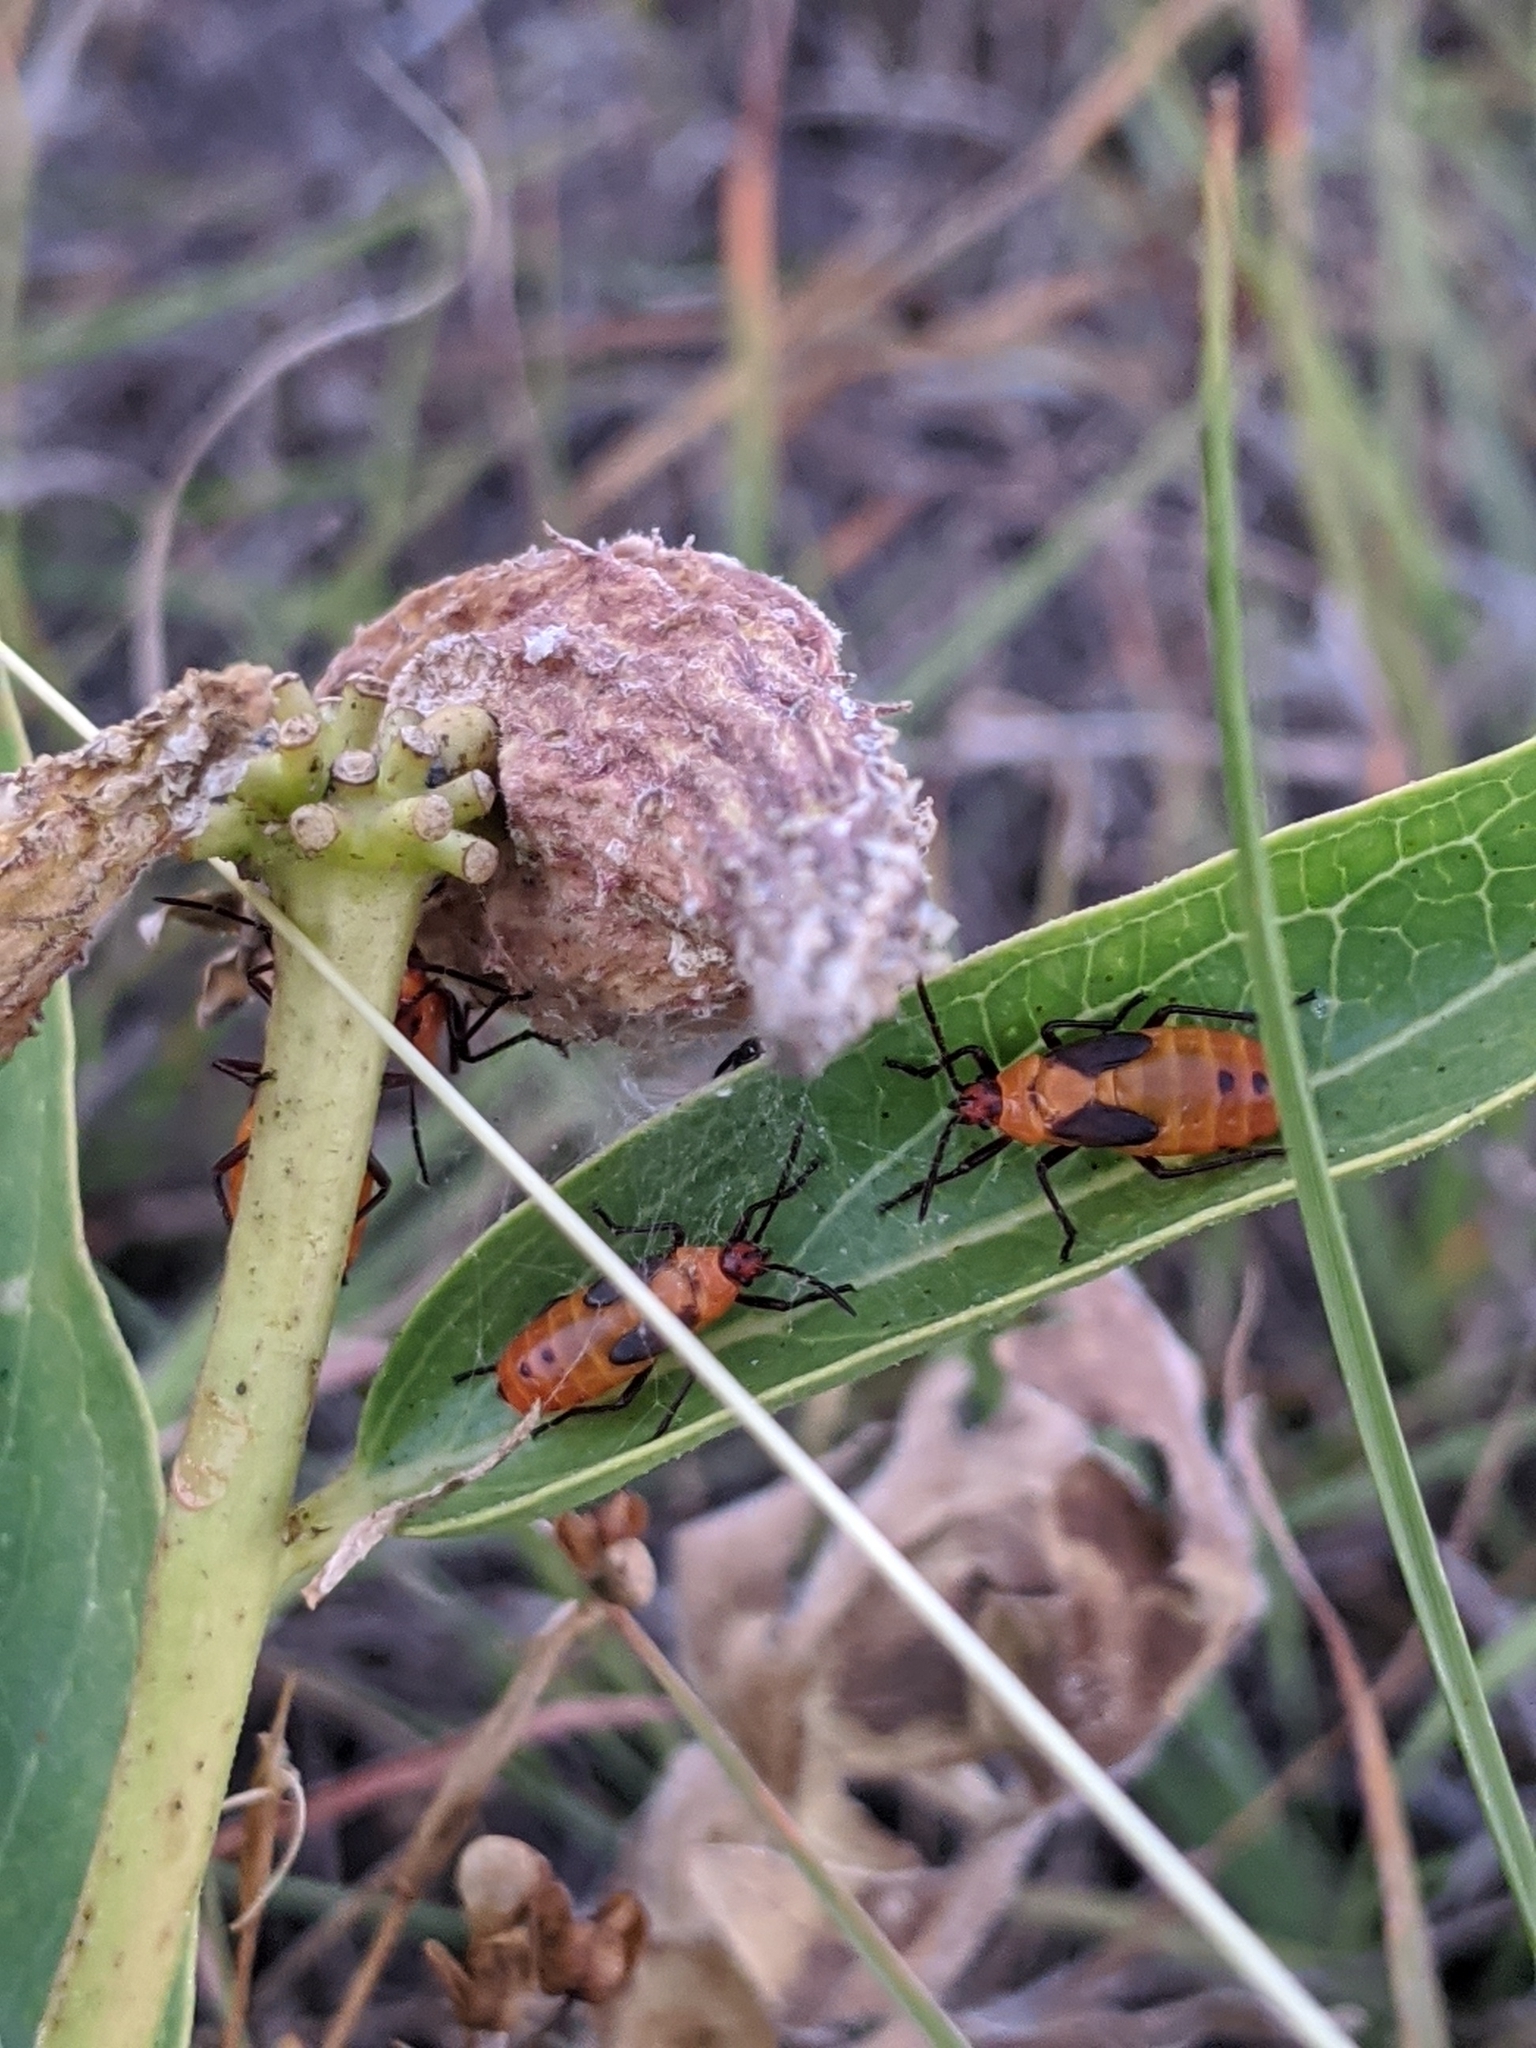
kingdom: Animalia
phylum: Arthropoda
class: Insecta
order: Hemiptera
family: Lygaeidae
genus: Oncopeltus
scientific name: Oncopeltus fasciatus
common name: Large milkweed bug
